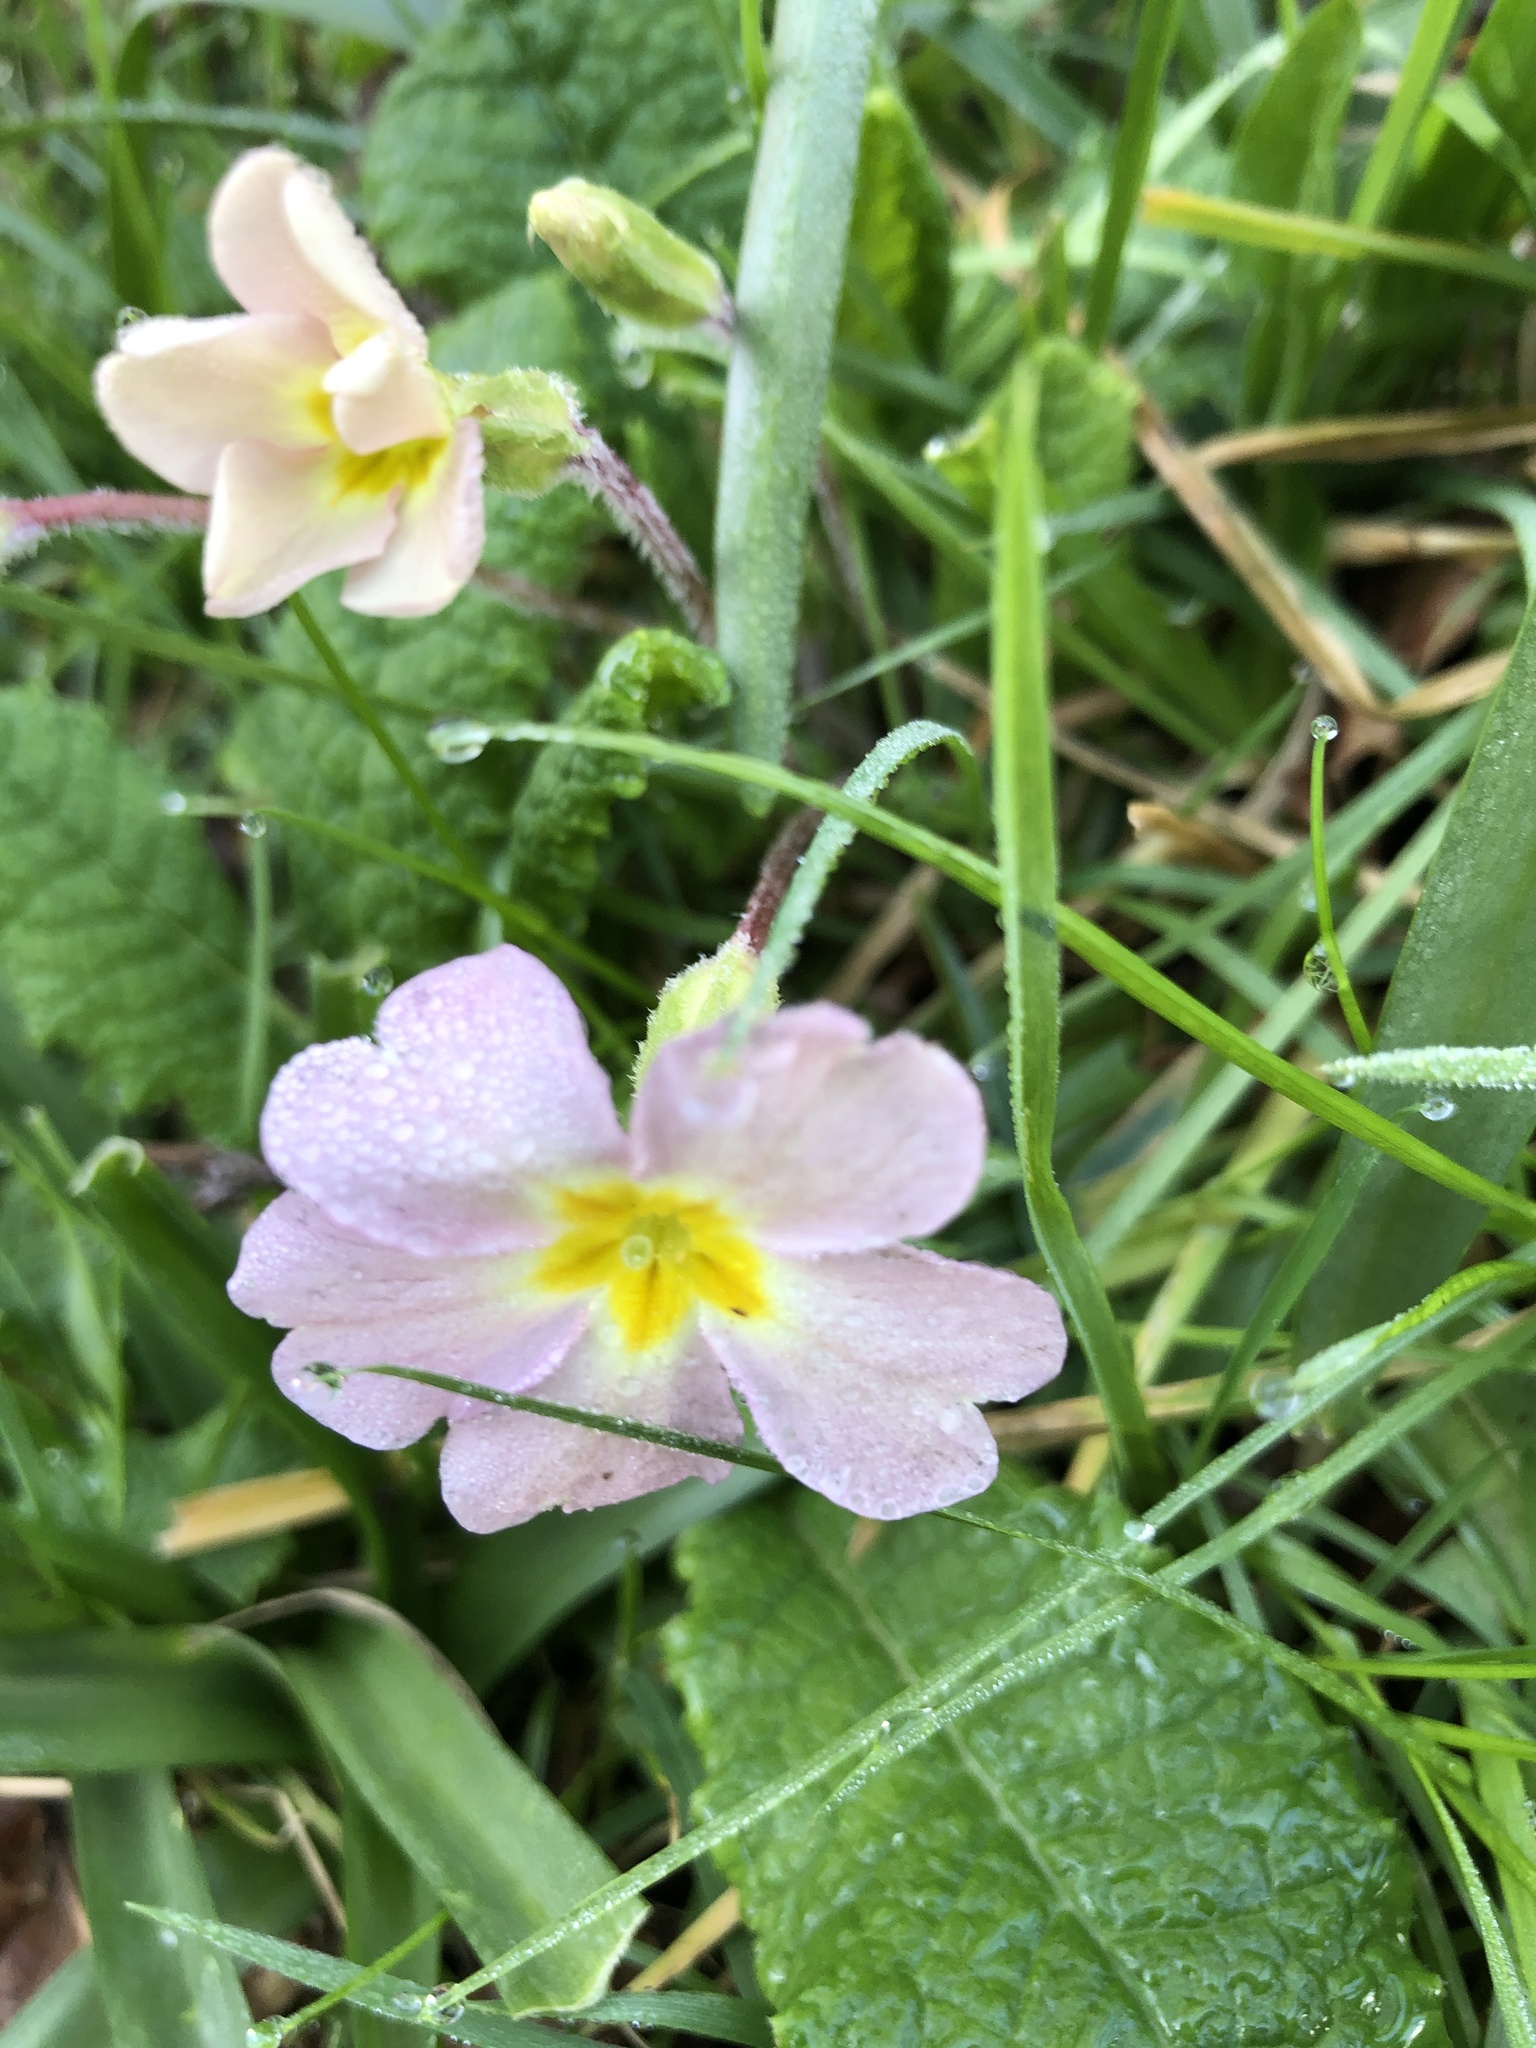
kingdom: Plantae
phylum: Tracheophyta
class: Magnoliopsida
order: Ericales
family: Primulaceae
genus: Primula
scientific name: Primula vulgaris
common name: Primrose
